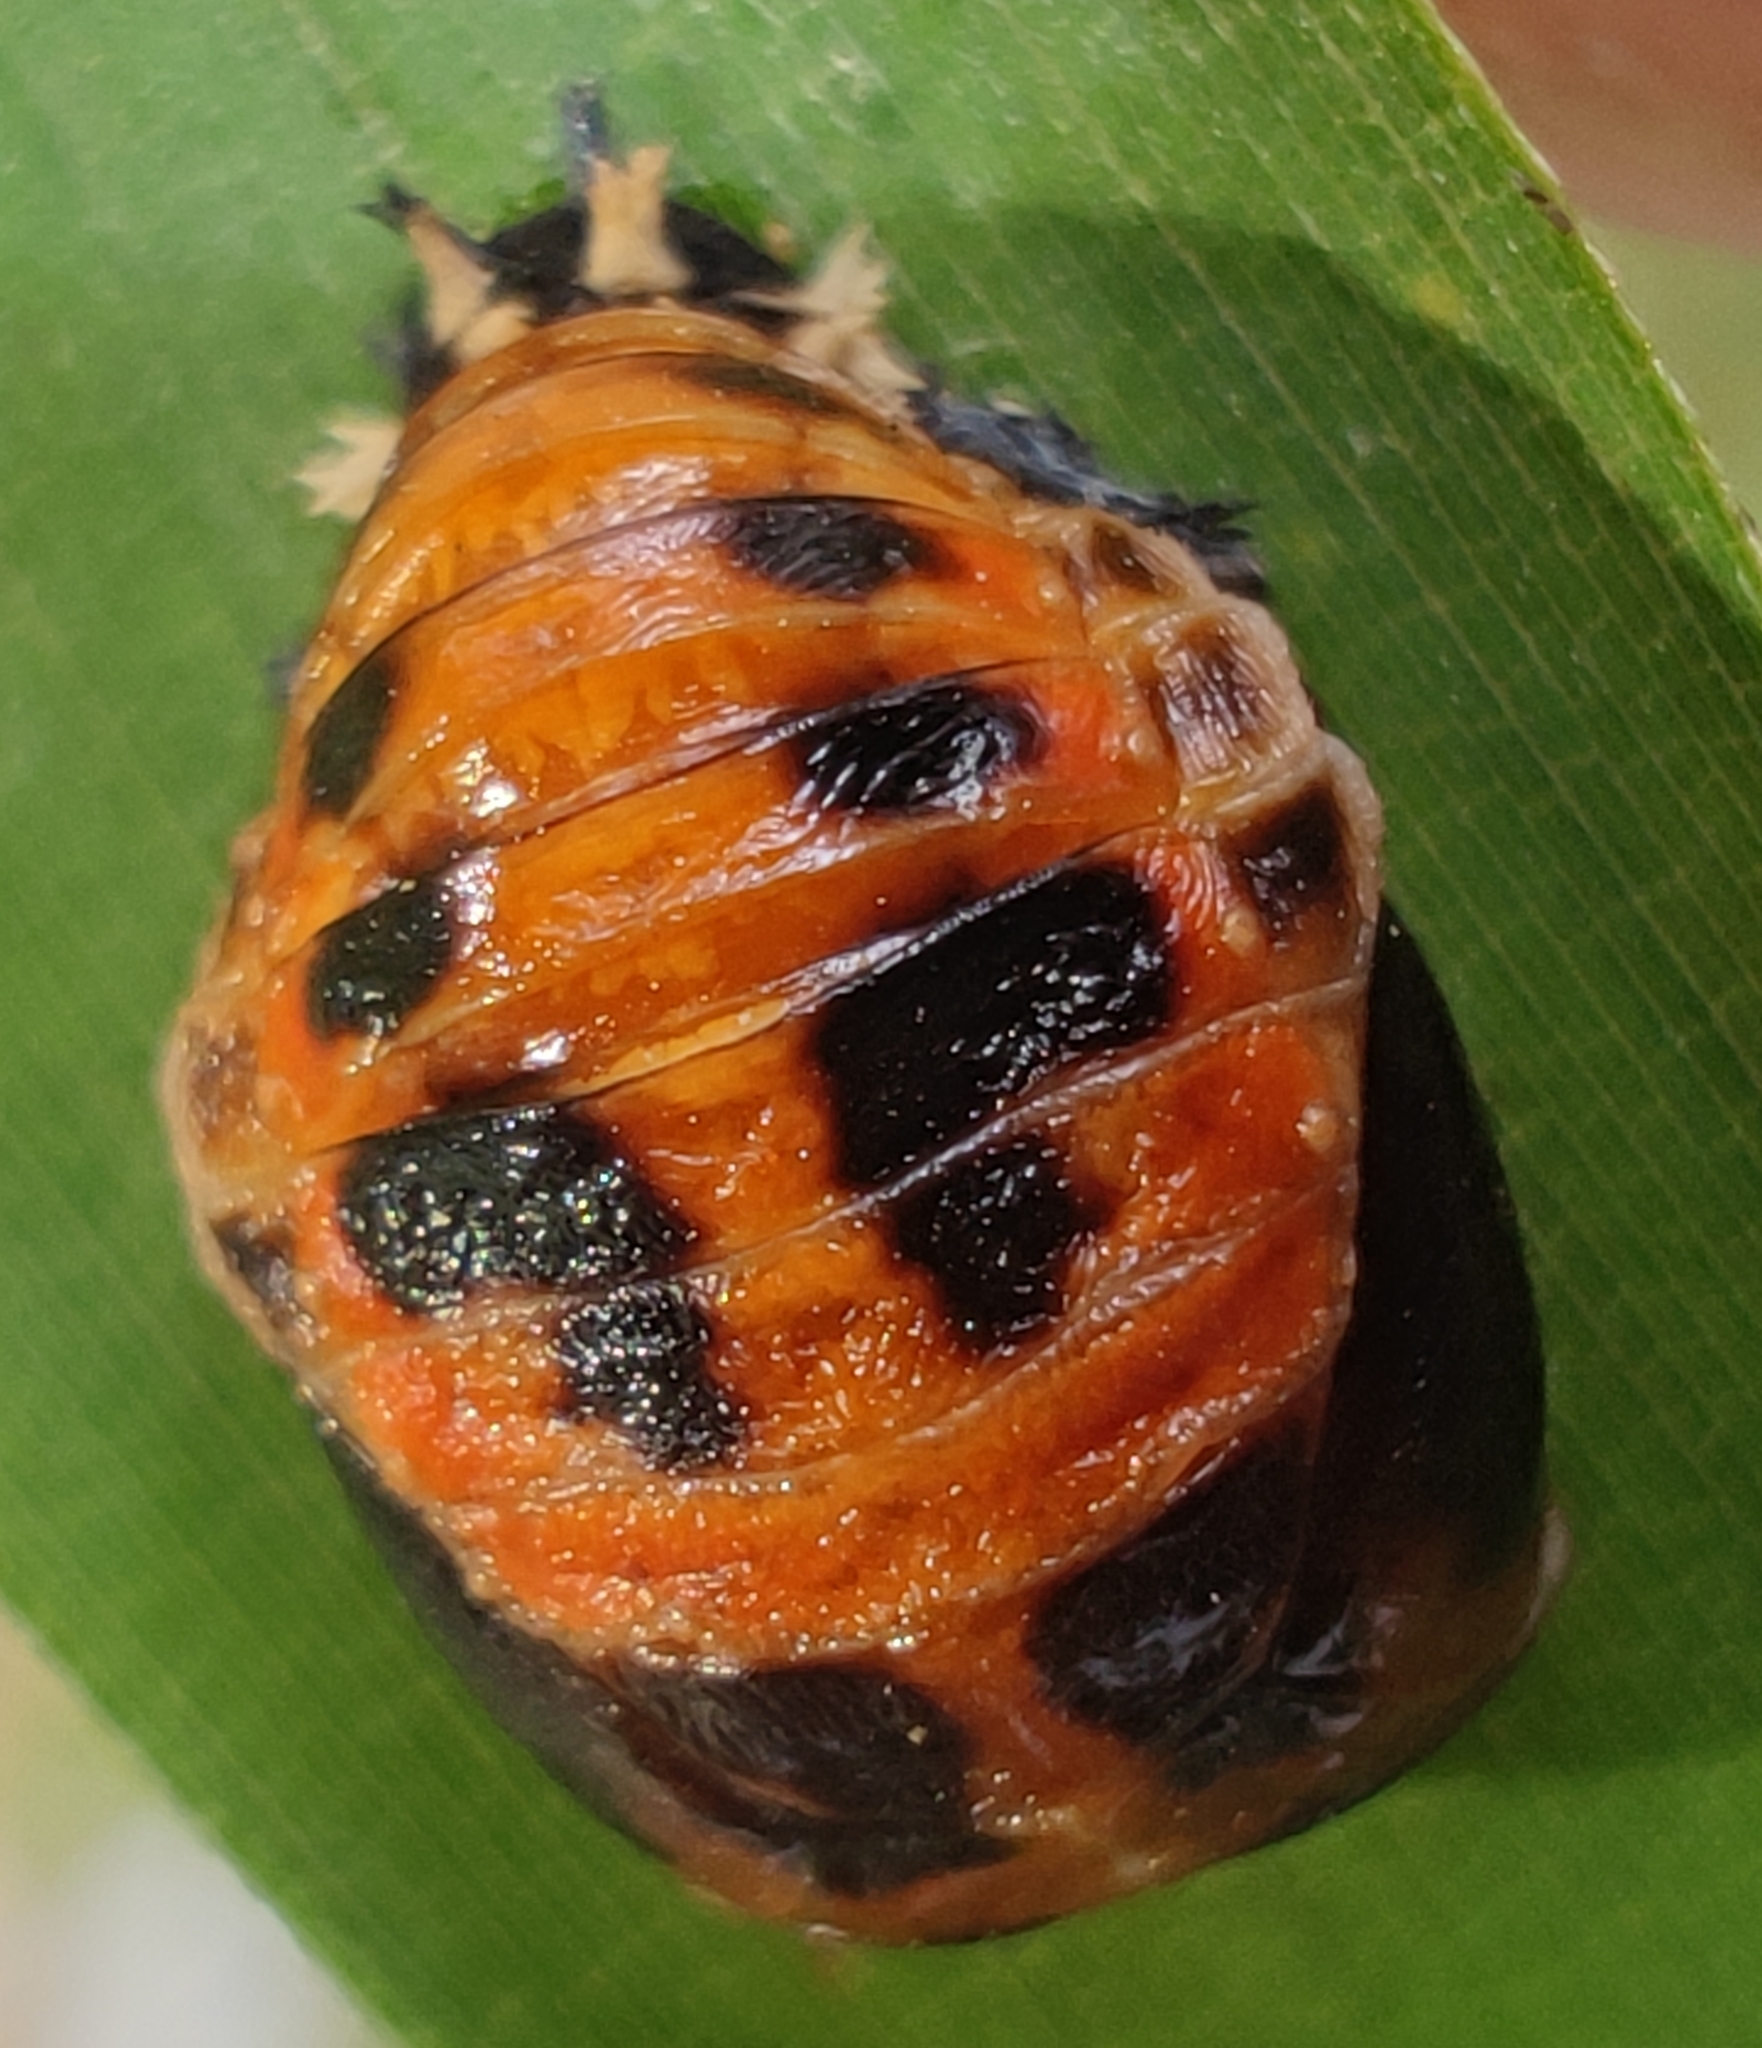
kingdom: Animalia
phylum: Arthropoda
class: Insecta
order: Coleoptera
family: Coccinellidae
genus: Harmonia
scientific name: Harmonia axyridis
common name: Harlequin ladybird
